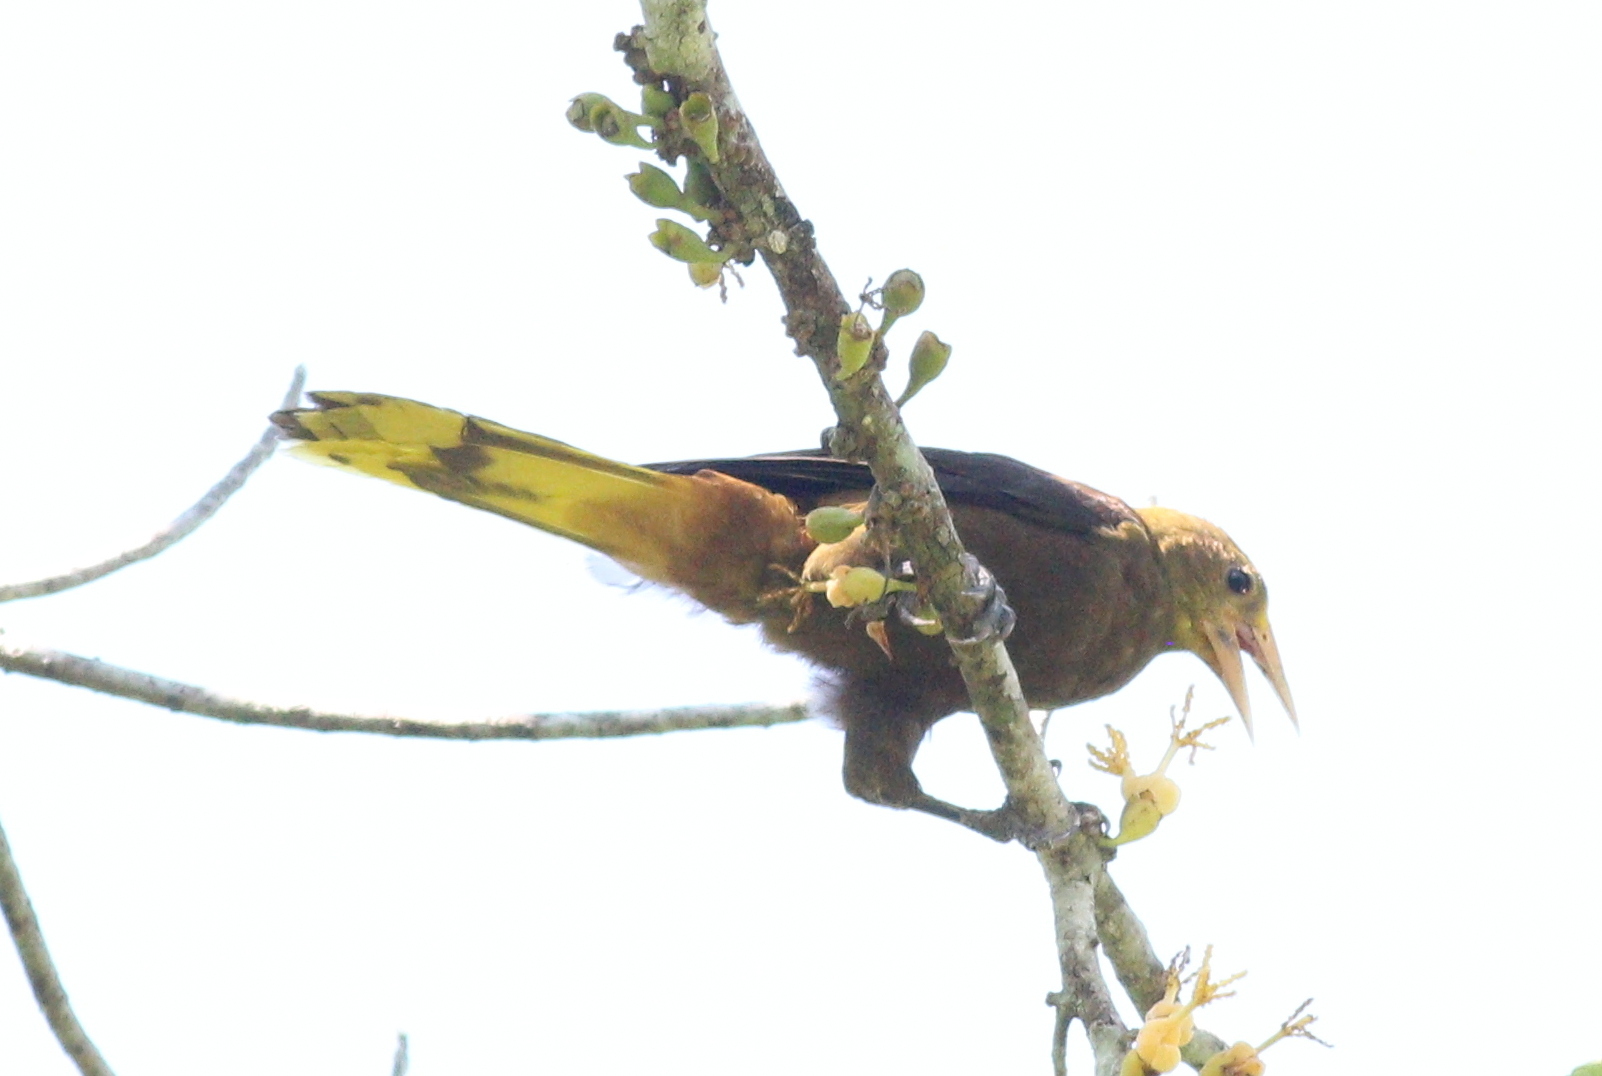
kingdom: Animalia
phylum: Chordata
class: Aves
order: Passeriformes
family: Icteridae
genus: Psarocolius
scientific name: Psarocolius angustifrons
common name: Russet-backed oropendola
